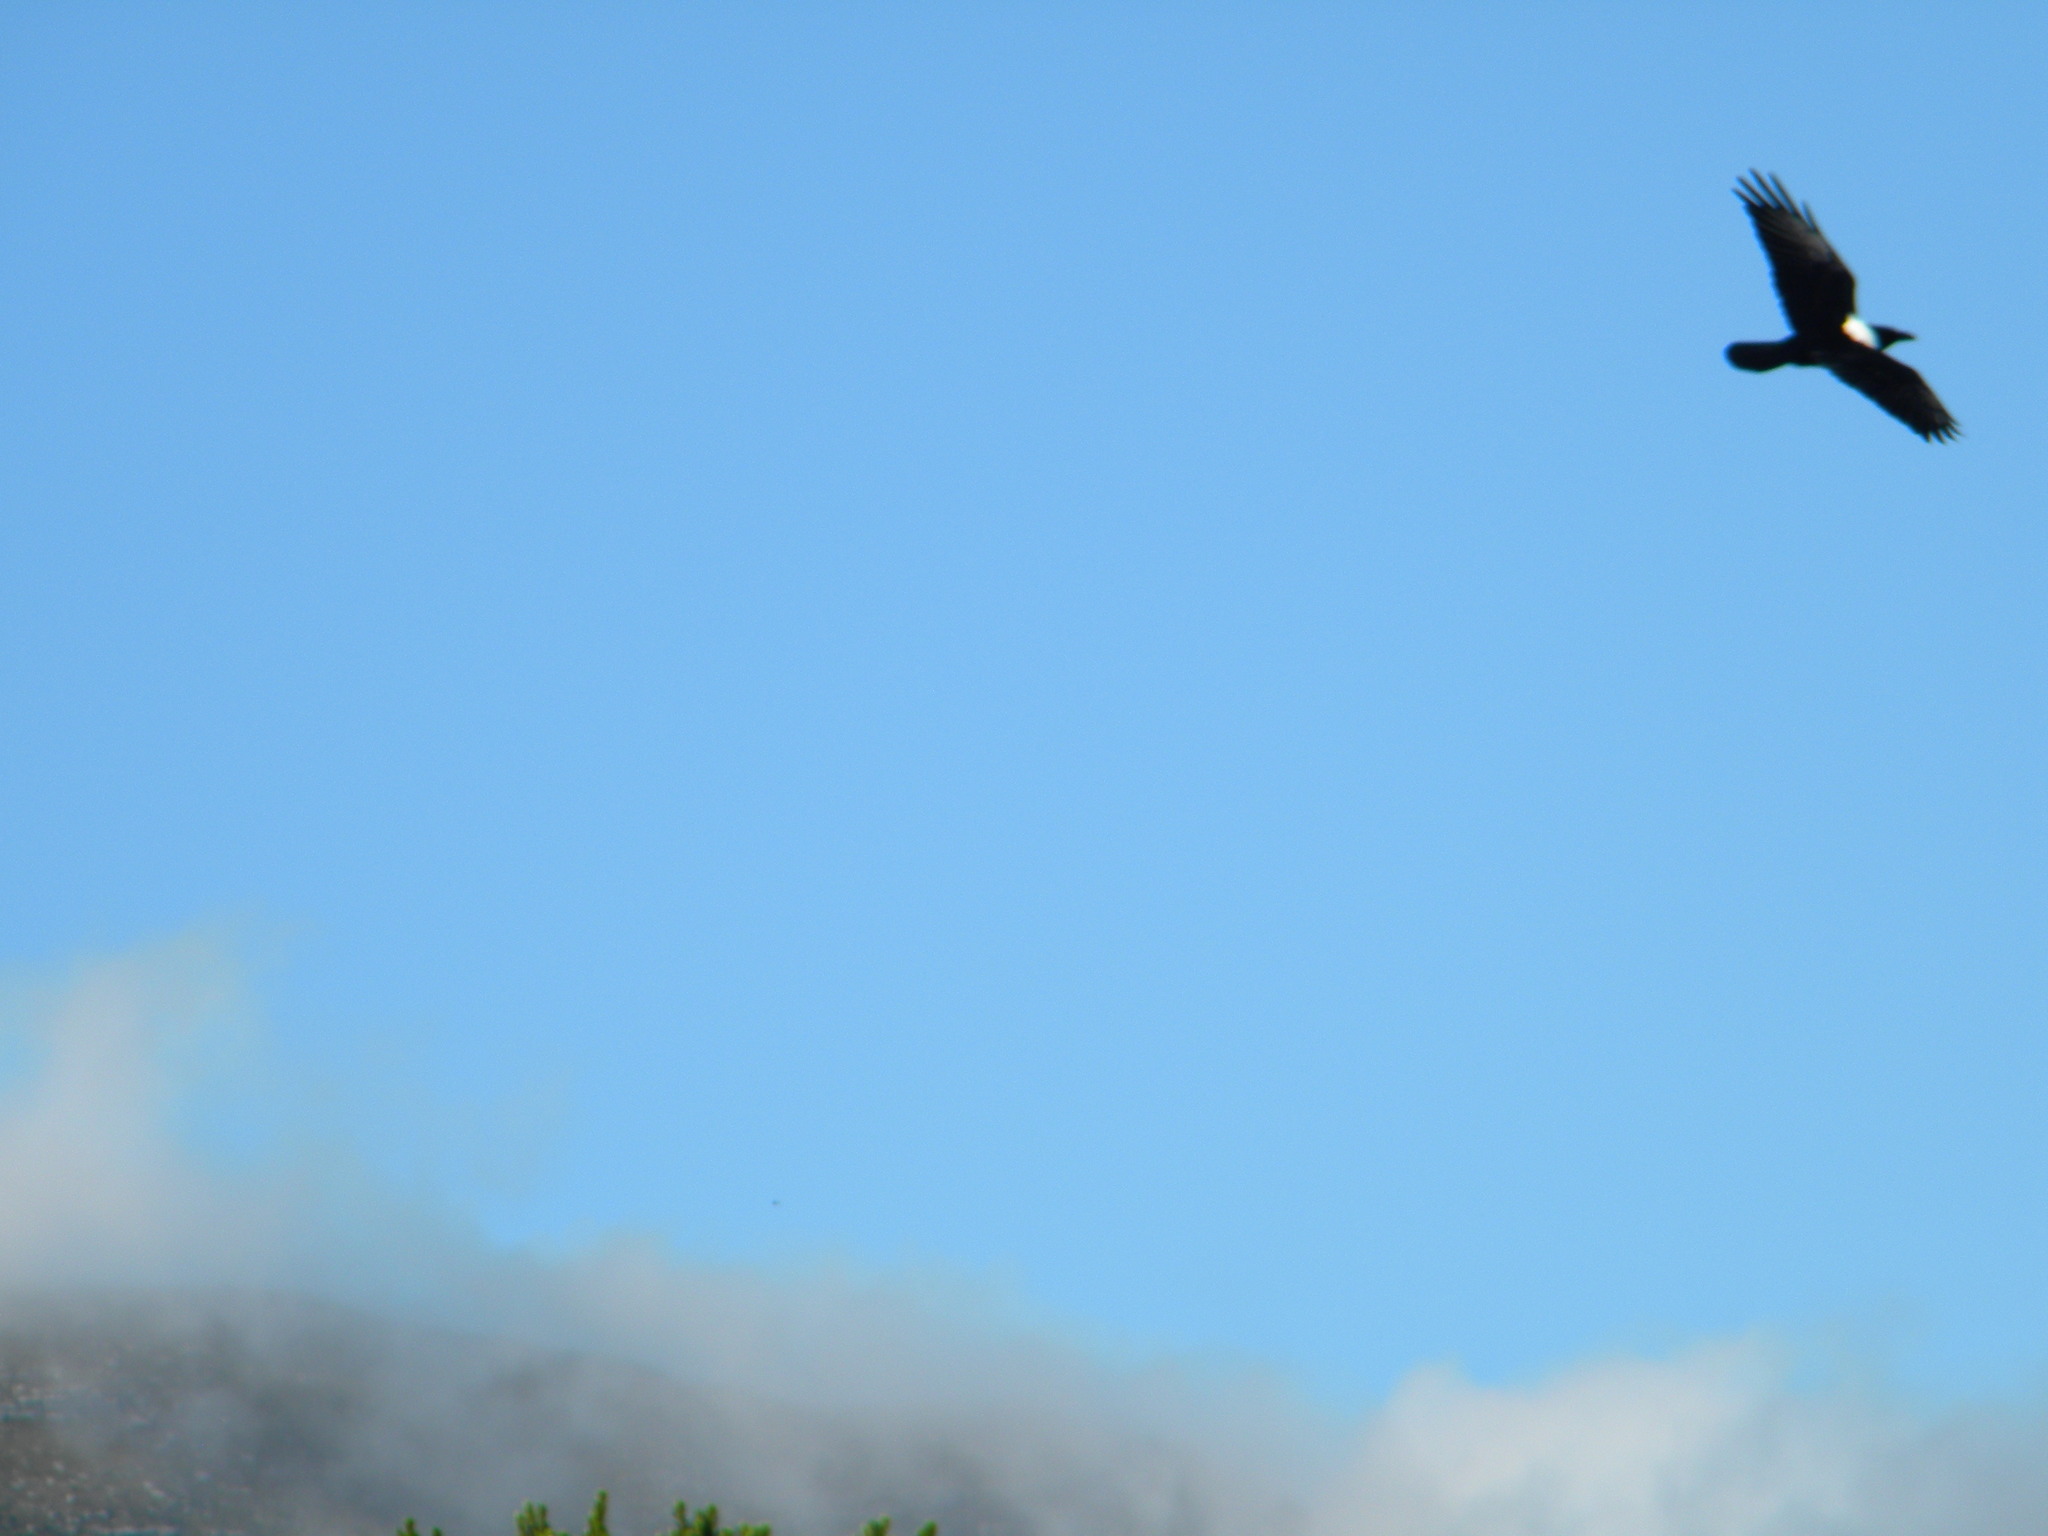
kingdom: Animalia
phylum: Chordata
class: Aves
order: Passeriformes
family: Corvidae
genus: Corvus
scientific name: Corvus albus
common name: Pied crow
